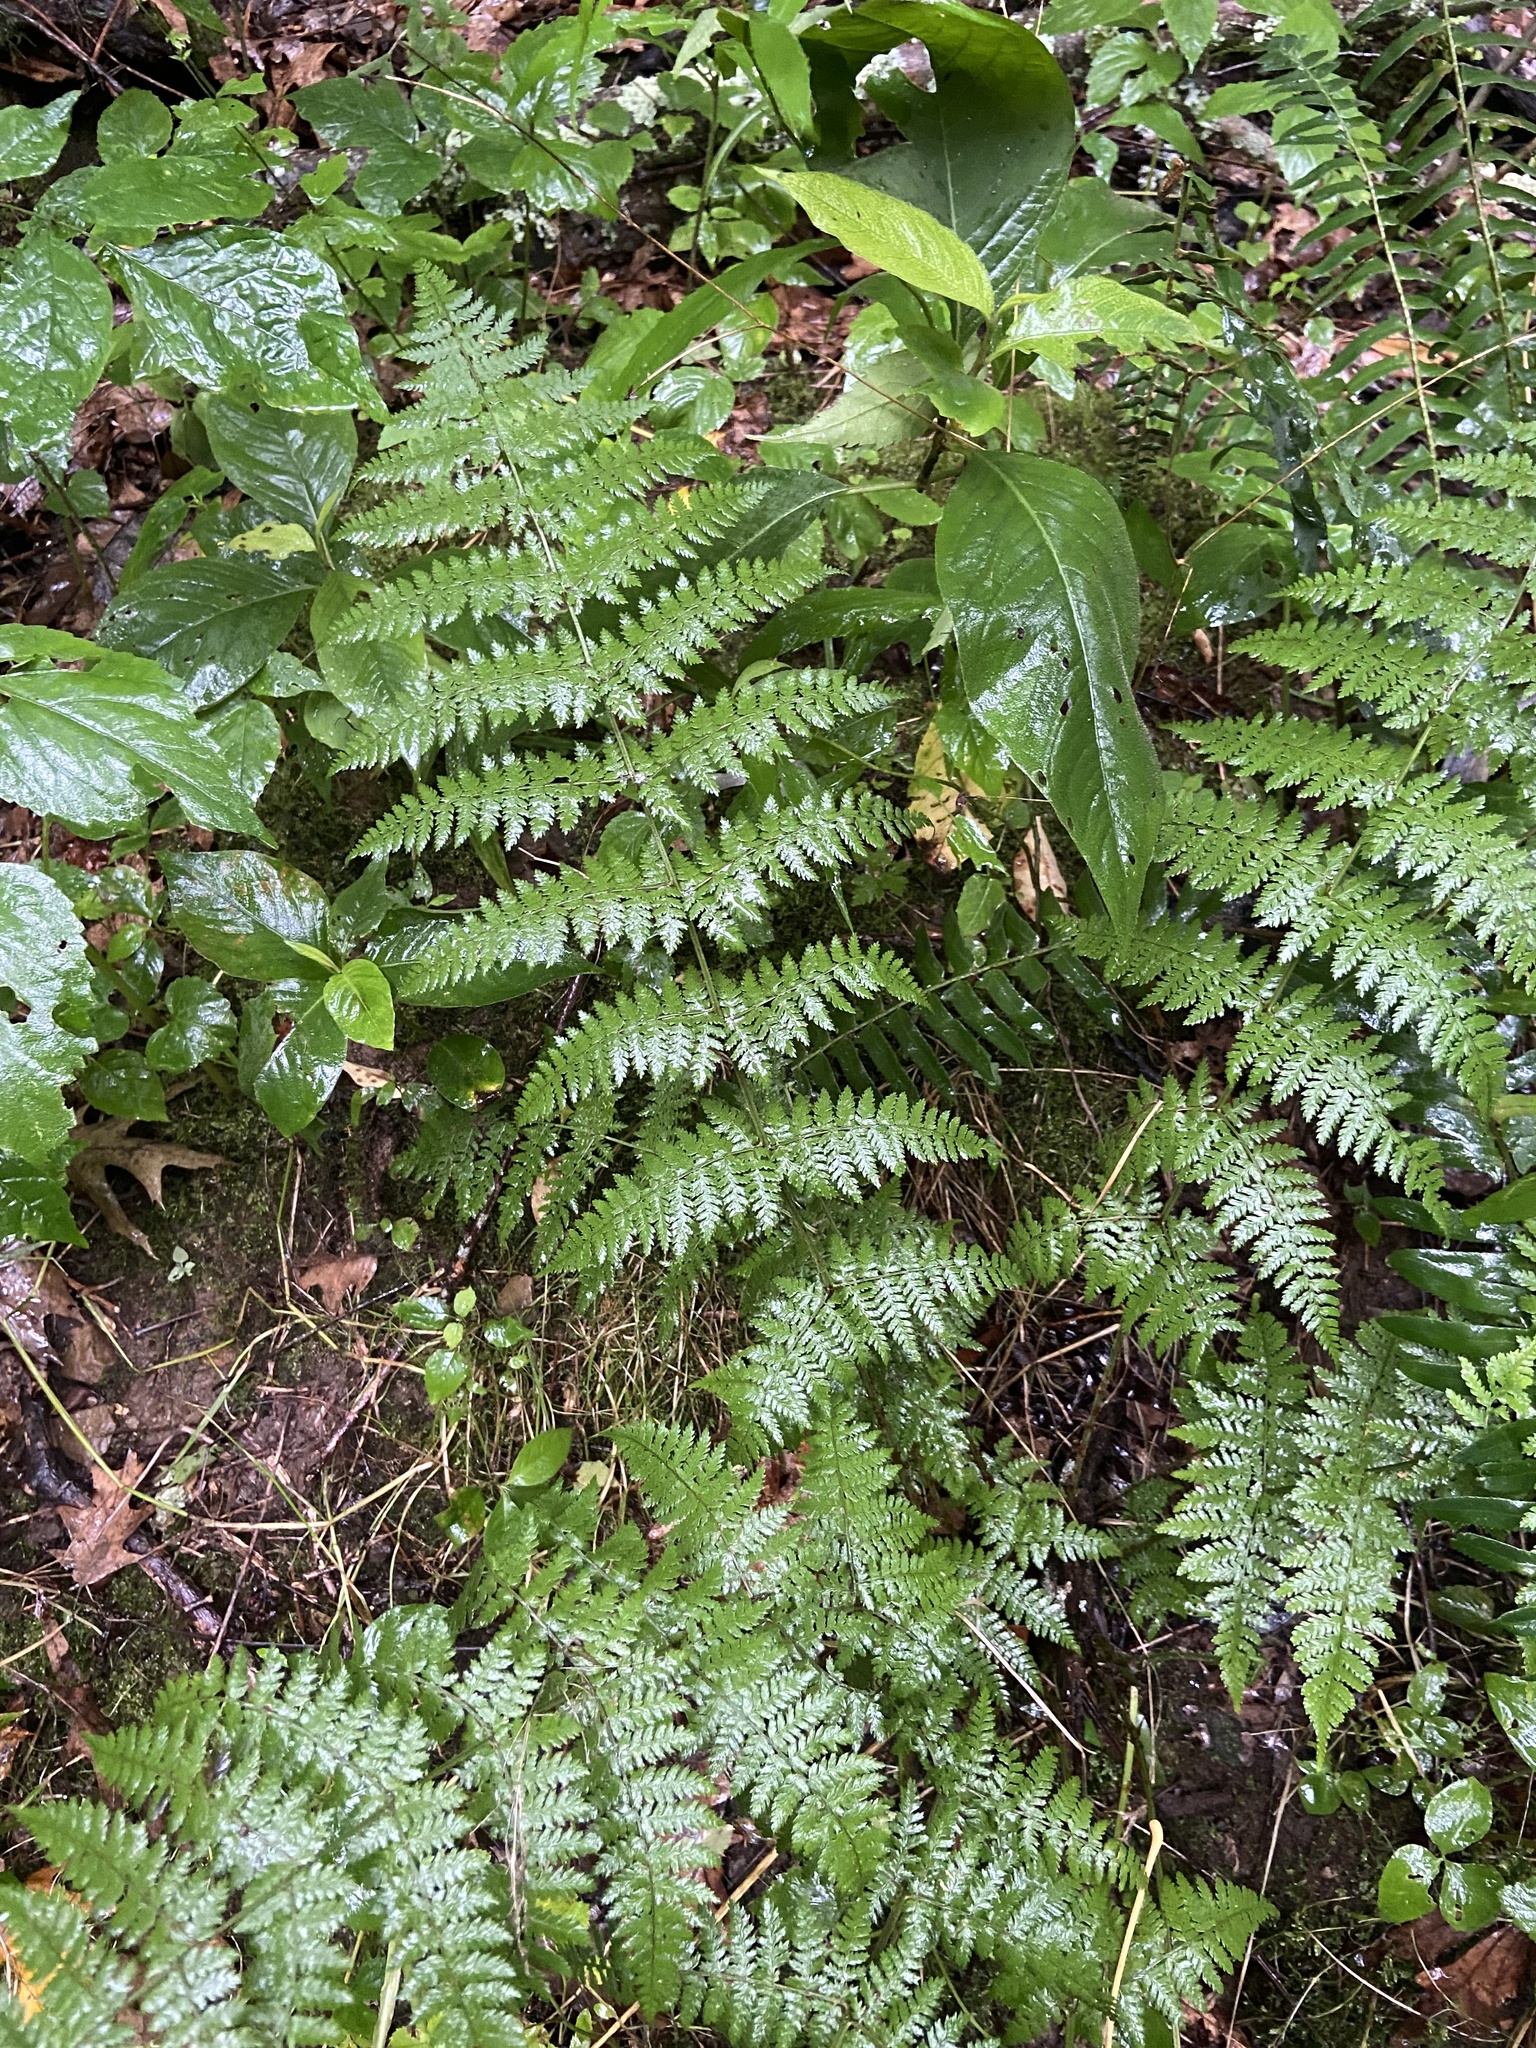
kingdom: Plantae
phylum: Tracheophyta
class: Polypodiopsida
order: Polypodiales
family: Dryopteridaceae
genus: Dryopteris
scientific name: Dryopteris intermedia
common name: Evergreen wood fern
